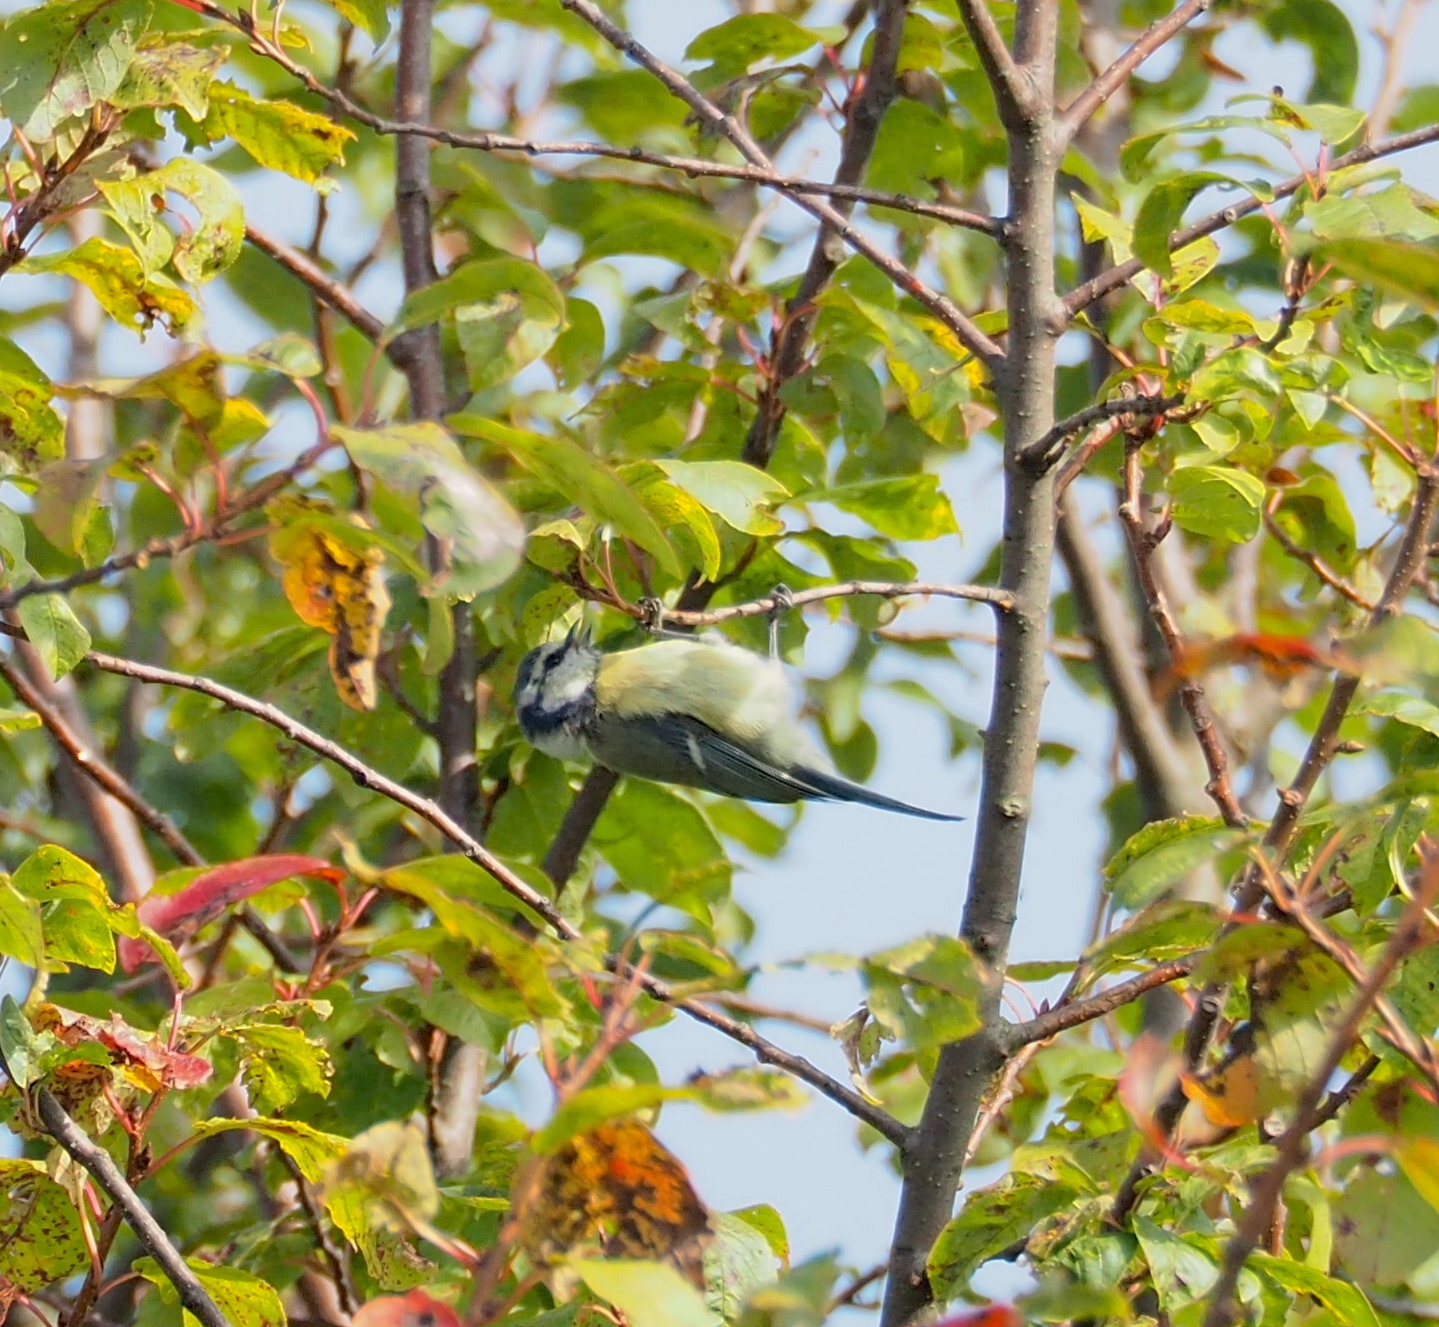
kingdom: Animalia
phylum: Chordata
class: Aves
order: Passeriformes
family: Paridae
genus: Cyanistes
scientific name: Cyanistes caeruleus
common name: Eurasian blue tit
